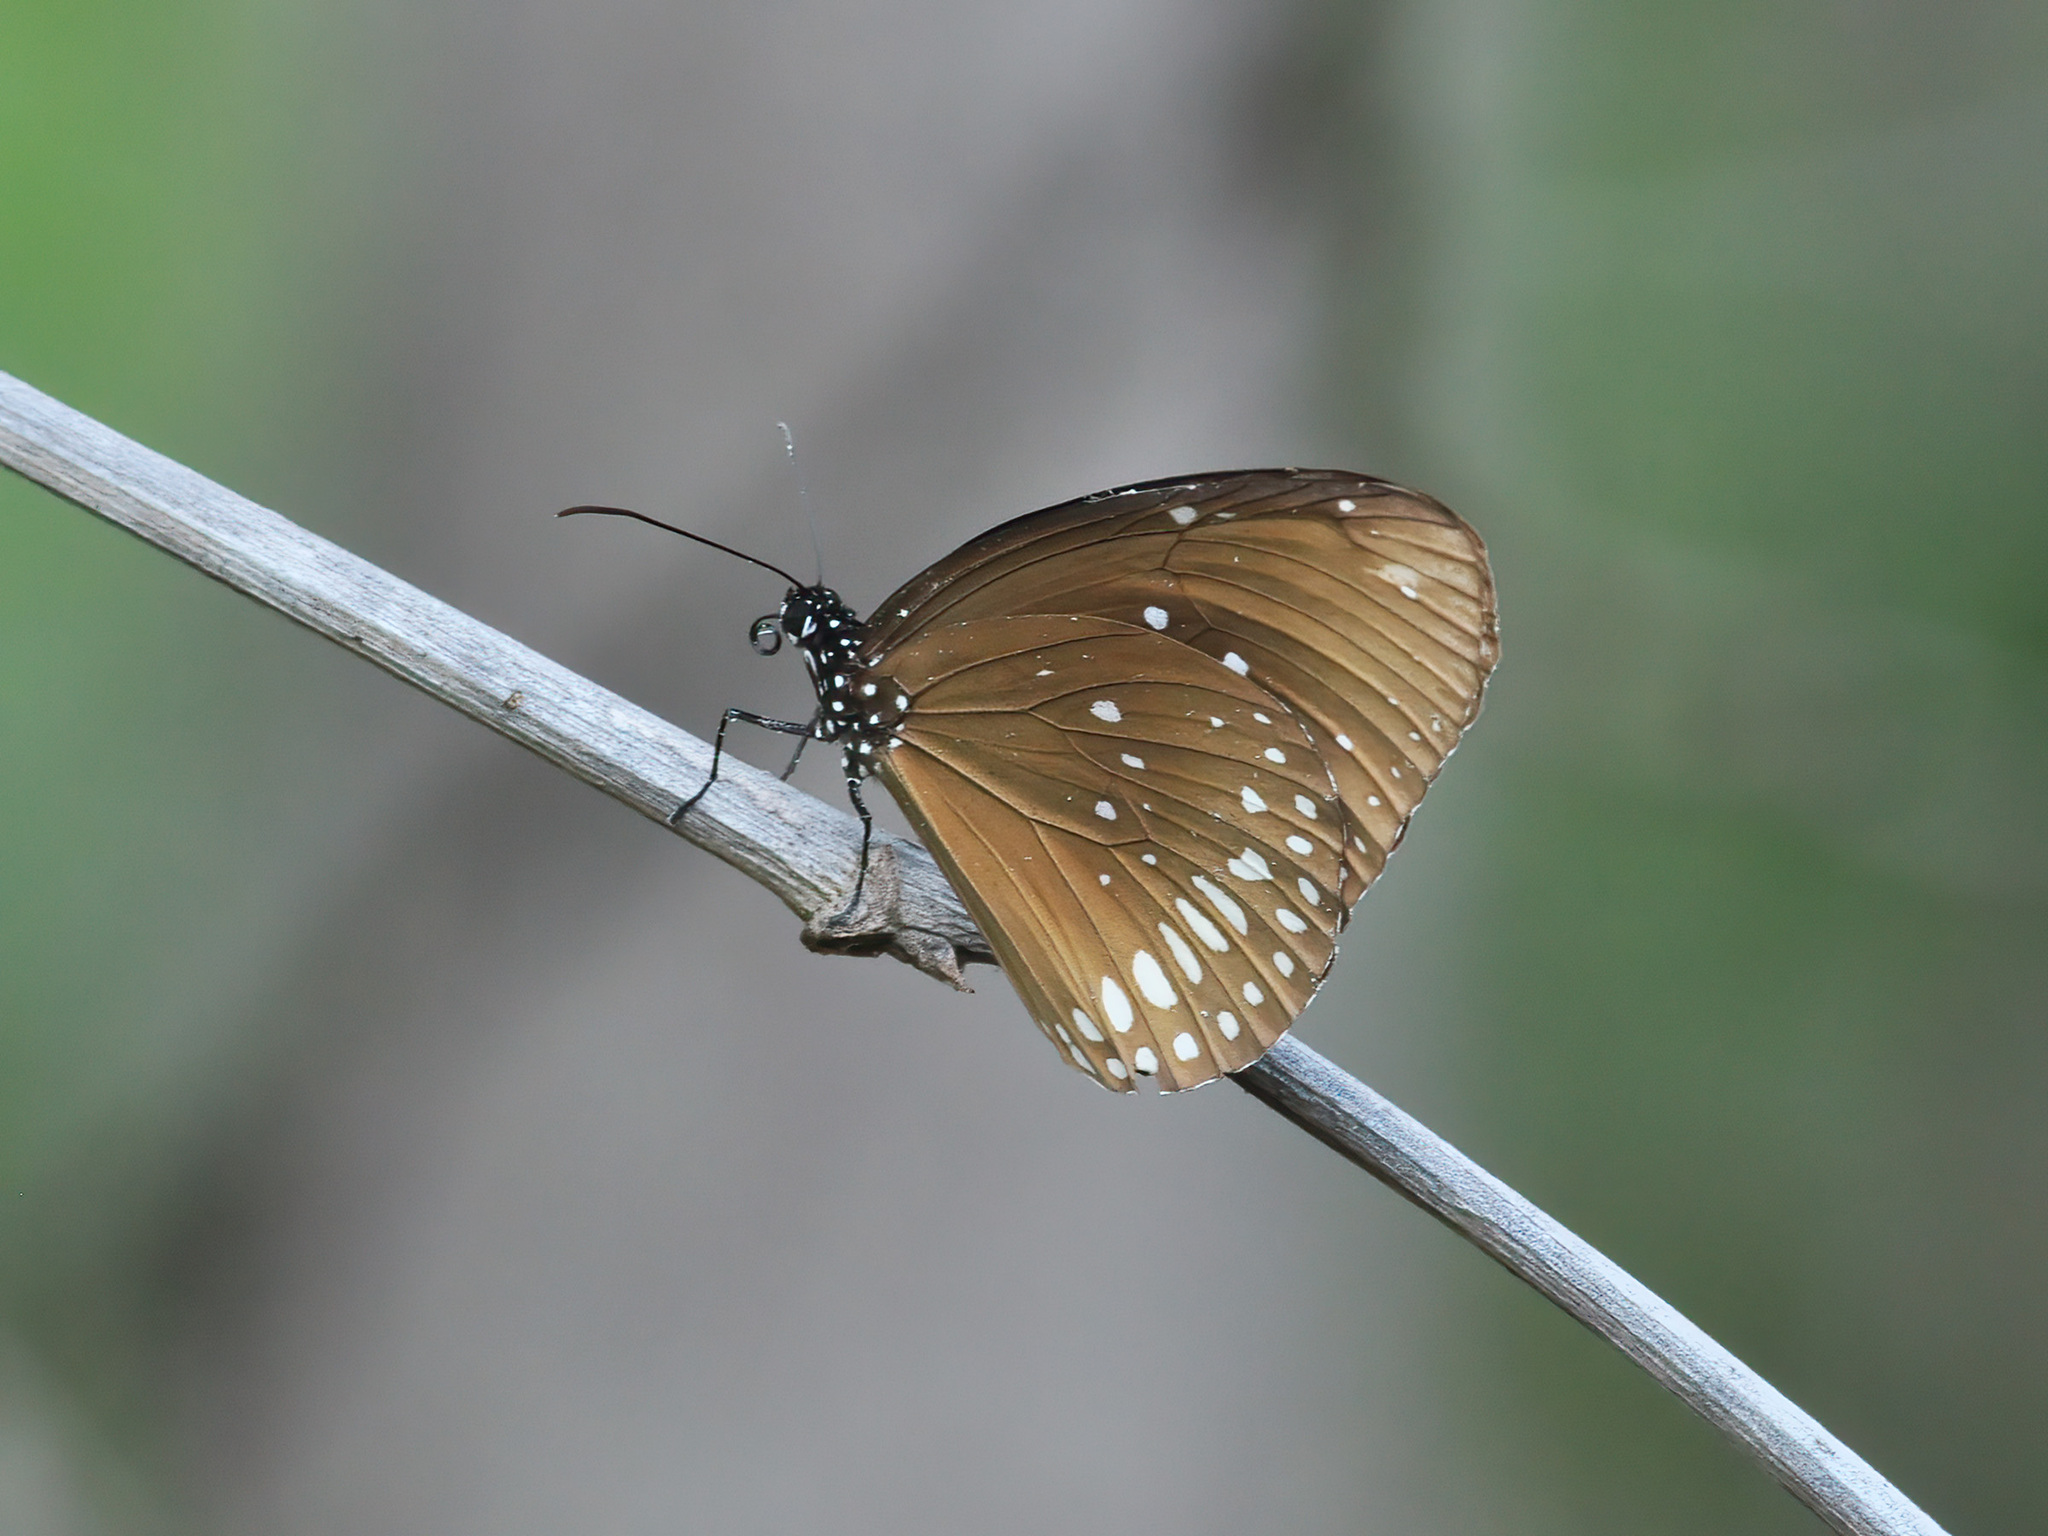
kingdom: Animalia
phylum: Arthropoda
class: Insecta
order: Lepidoptera
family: Nymphalidae
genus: Euploea
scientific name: Euploea core
